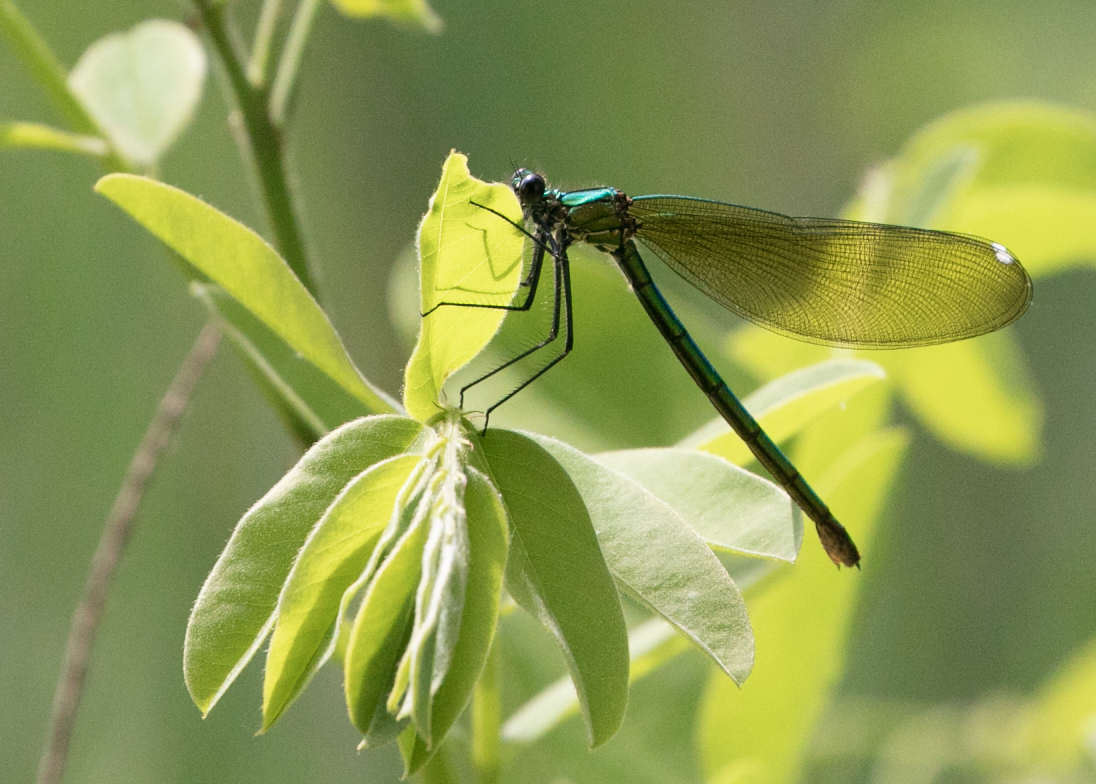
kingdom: Animalia
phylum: Arthropoda
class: Insecta
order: Odonata
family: Calopterygidae
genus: Calopteryx
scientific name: Calopteryx splendens
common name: Banded demoiselle
